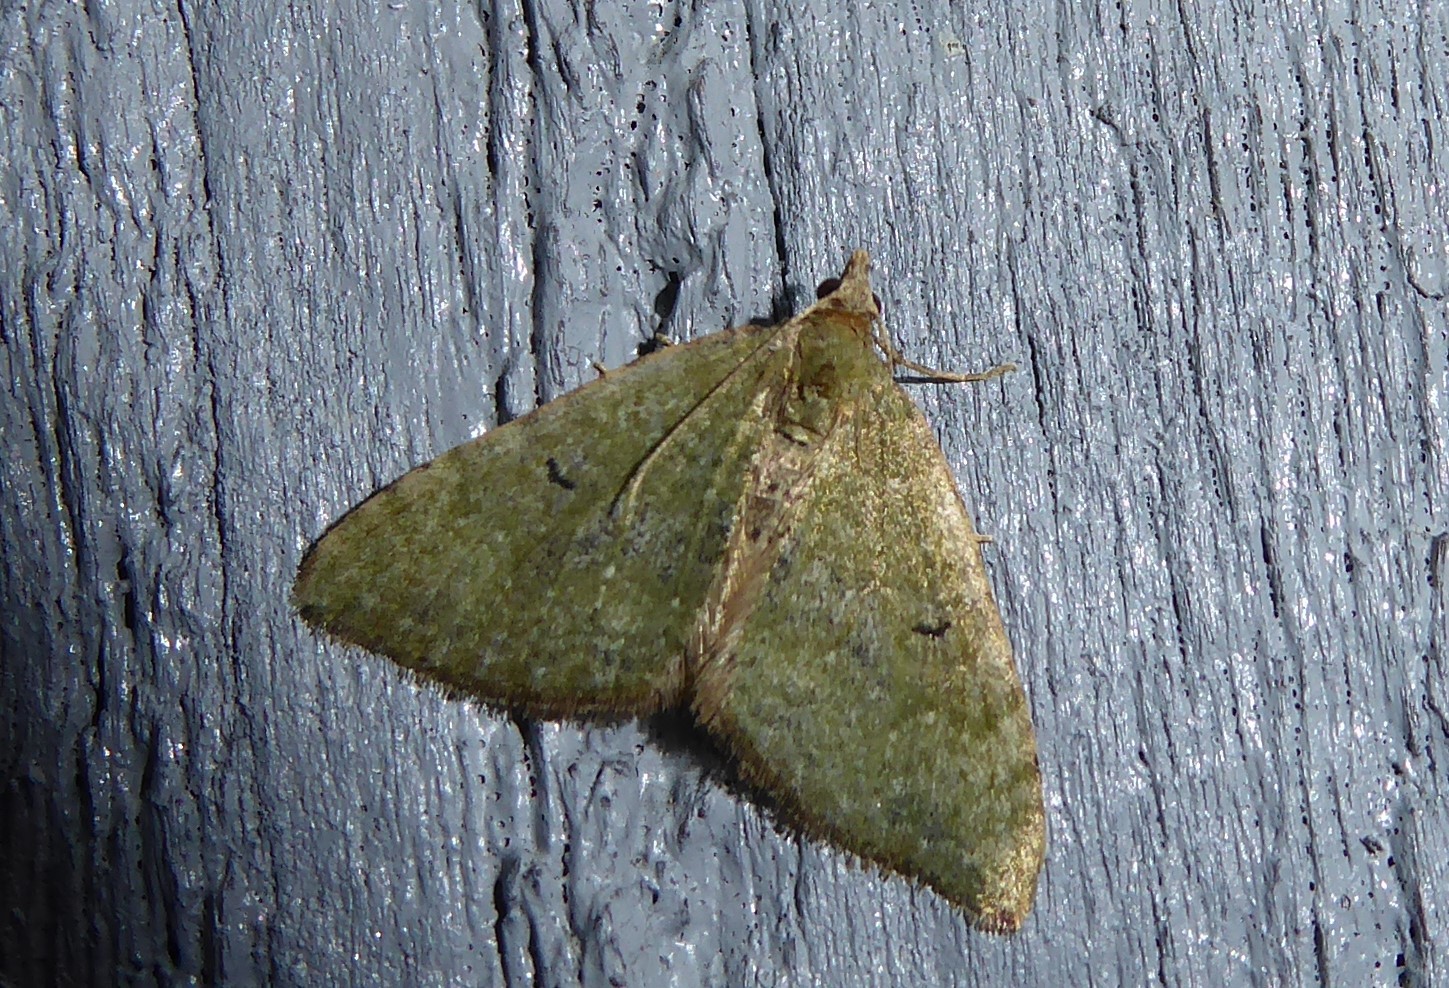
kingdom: Animalia
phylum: Arthropoda
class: Insecta
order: Lepidoptera
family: Geometridae
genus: Epyaxa
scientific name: Epyaxa rosearia
